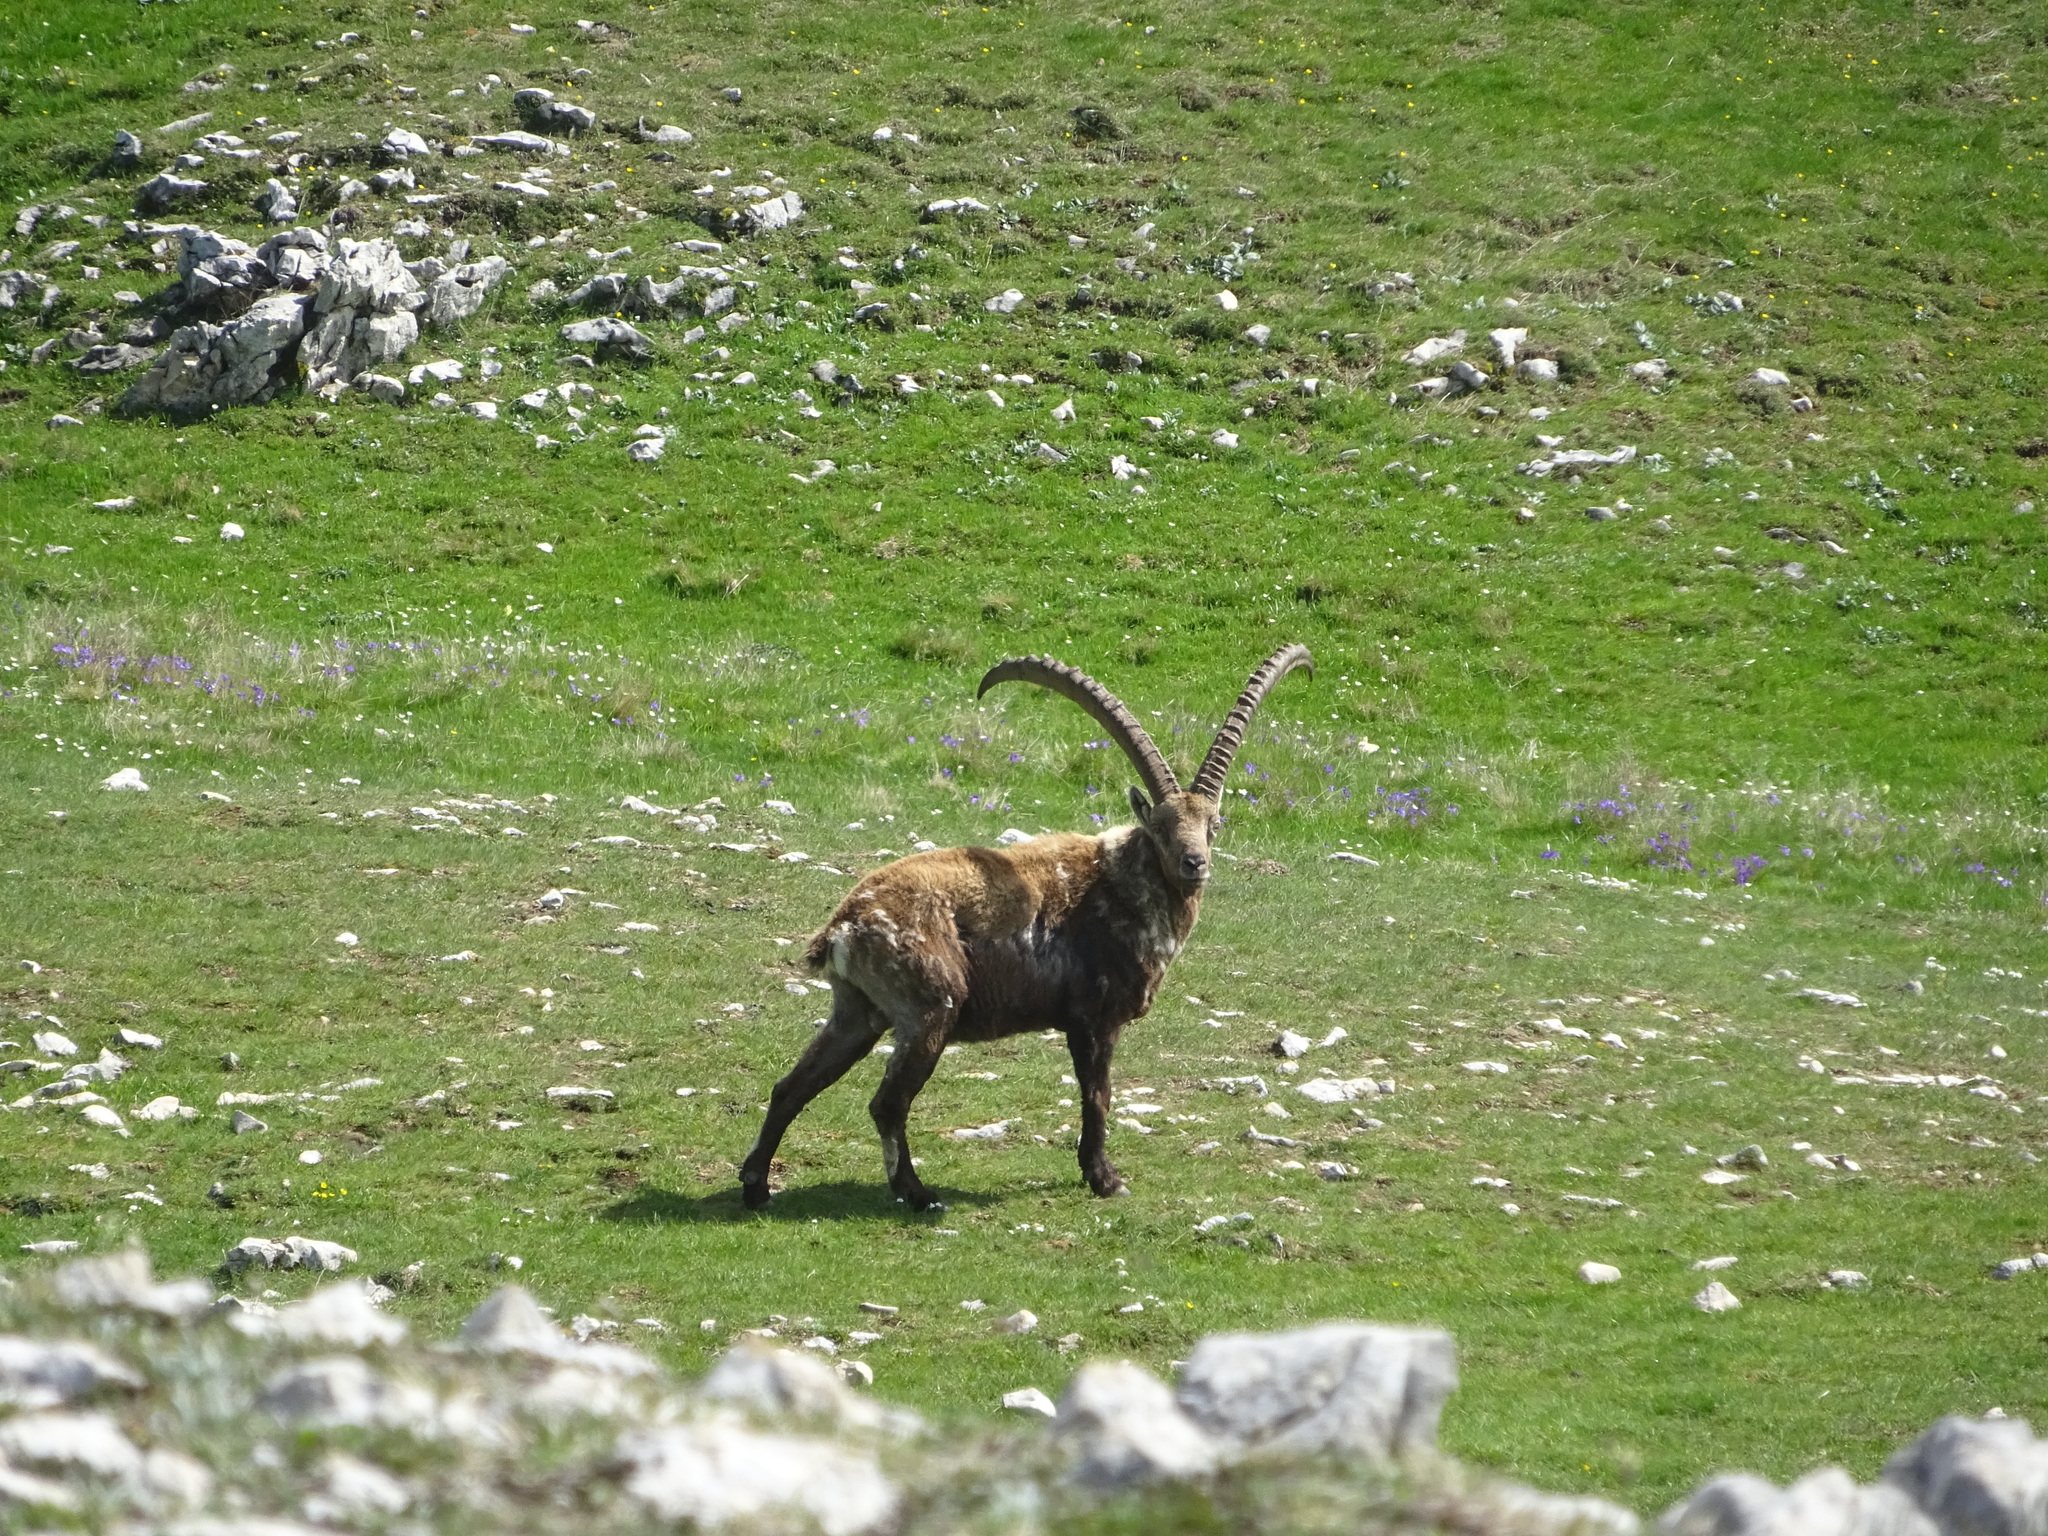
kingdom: Animalia
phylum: Chordata
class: Mammalia
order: Artiodactyla
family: Bovidae
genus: Capra
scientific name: Capra ibex
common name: Alpine ibex
